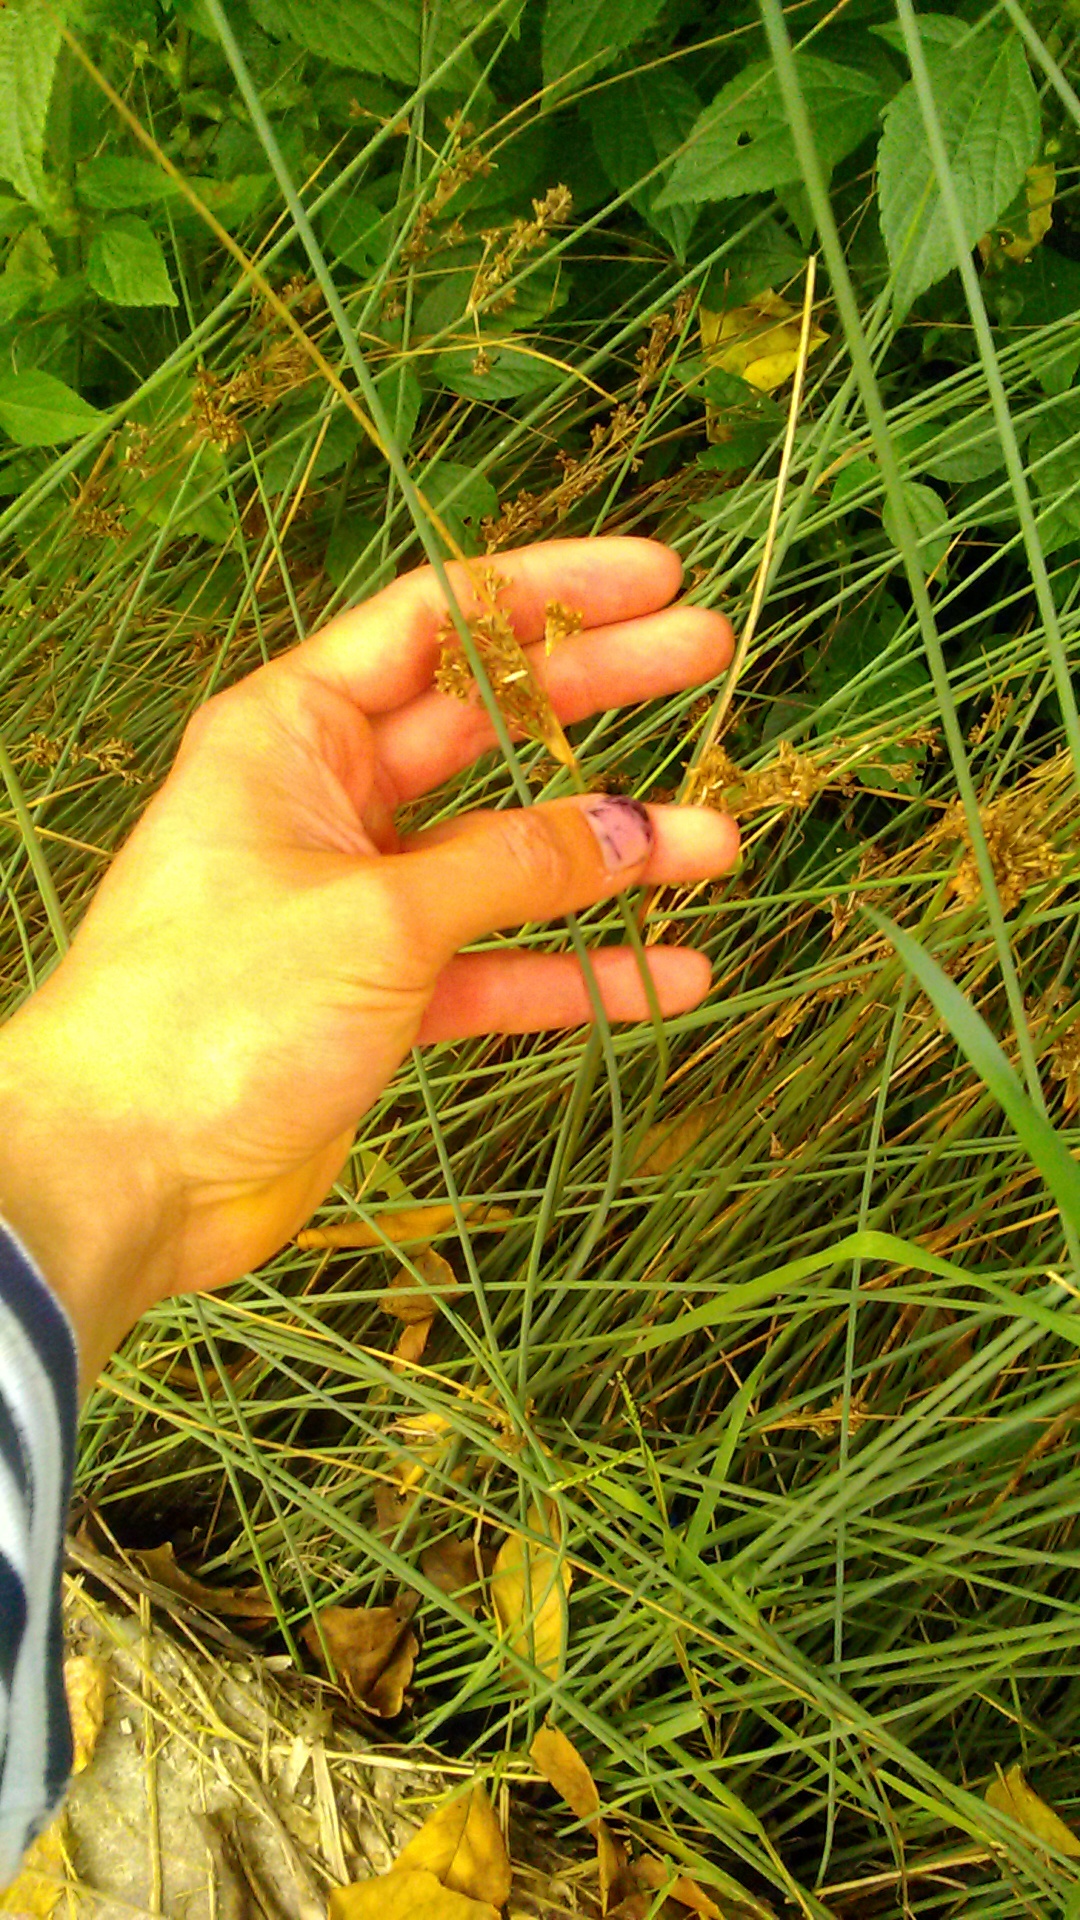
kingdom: Plantae
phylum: Tracheophyta
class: Liliopsida
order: Poales
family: Juncaceae
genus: Juncus
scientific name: Juncus inflexus
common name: Hard rush
